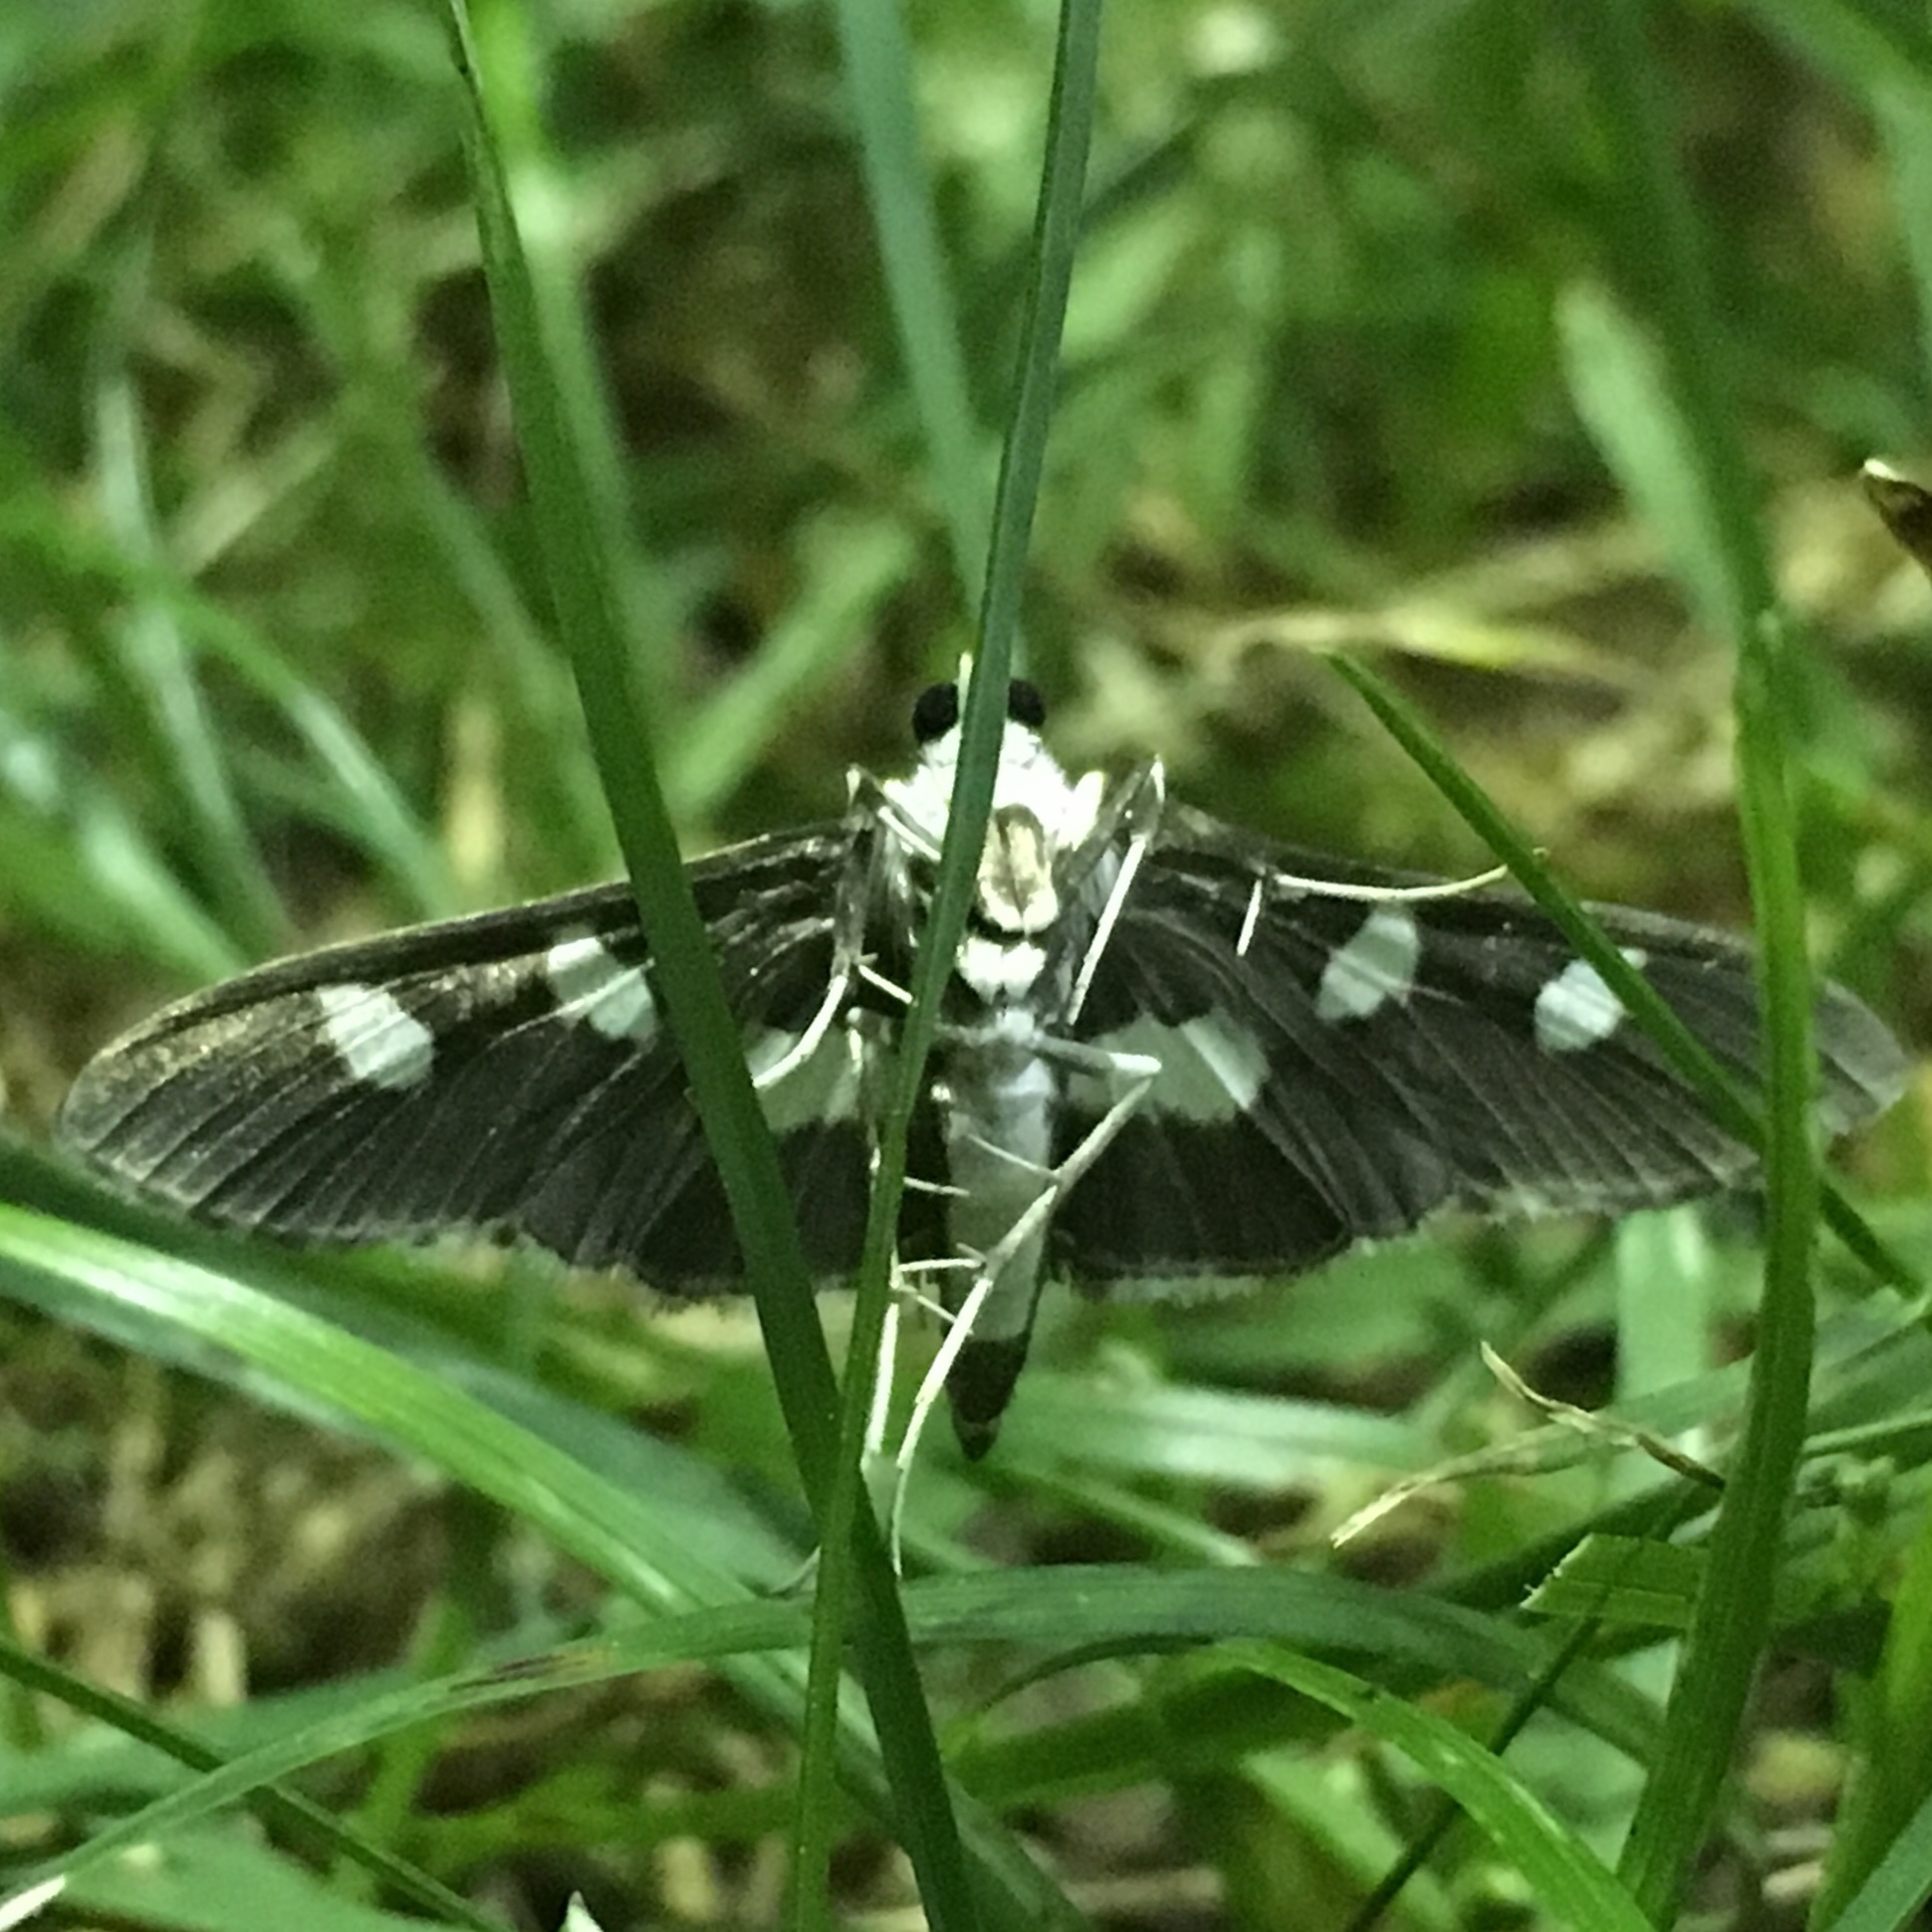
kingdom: Animalia
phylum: Arthropoda
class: Insecta
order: Lepidoptera
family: Crambidae
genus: Desmia
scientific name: Desmia funeralis
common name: Grape leaf folder moth
